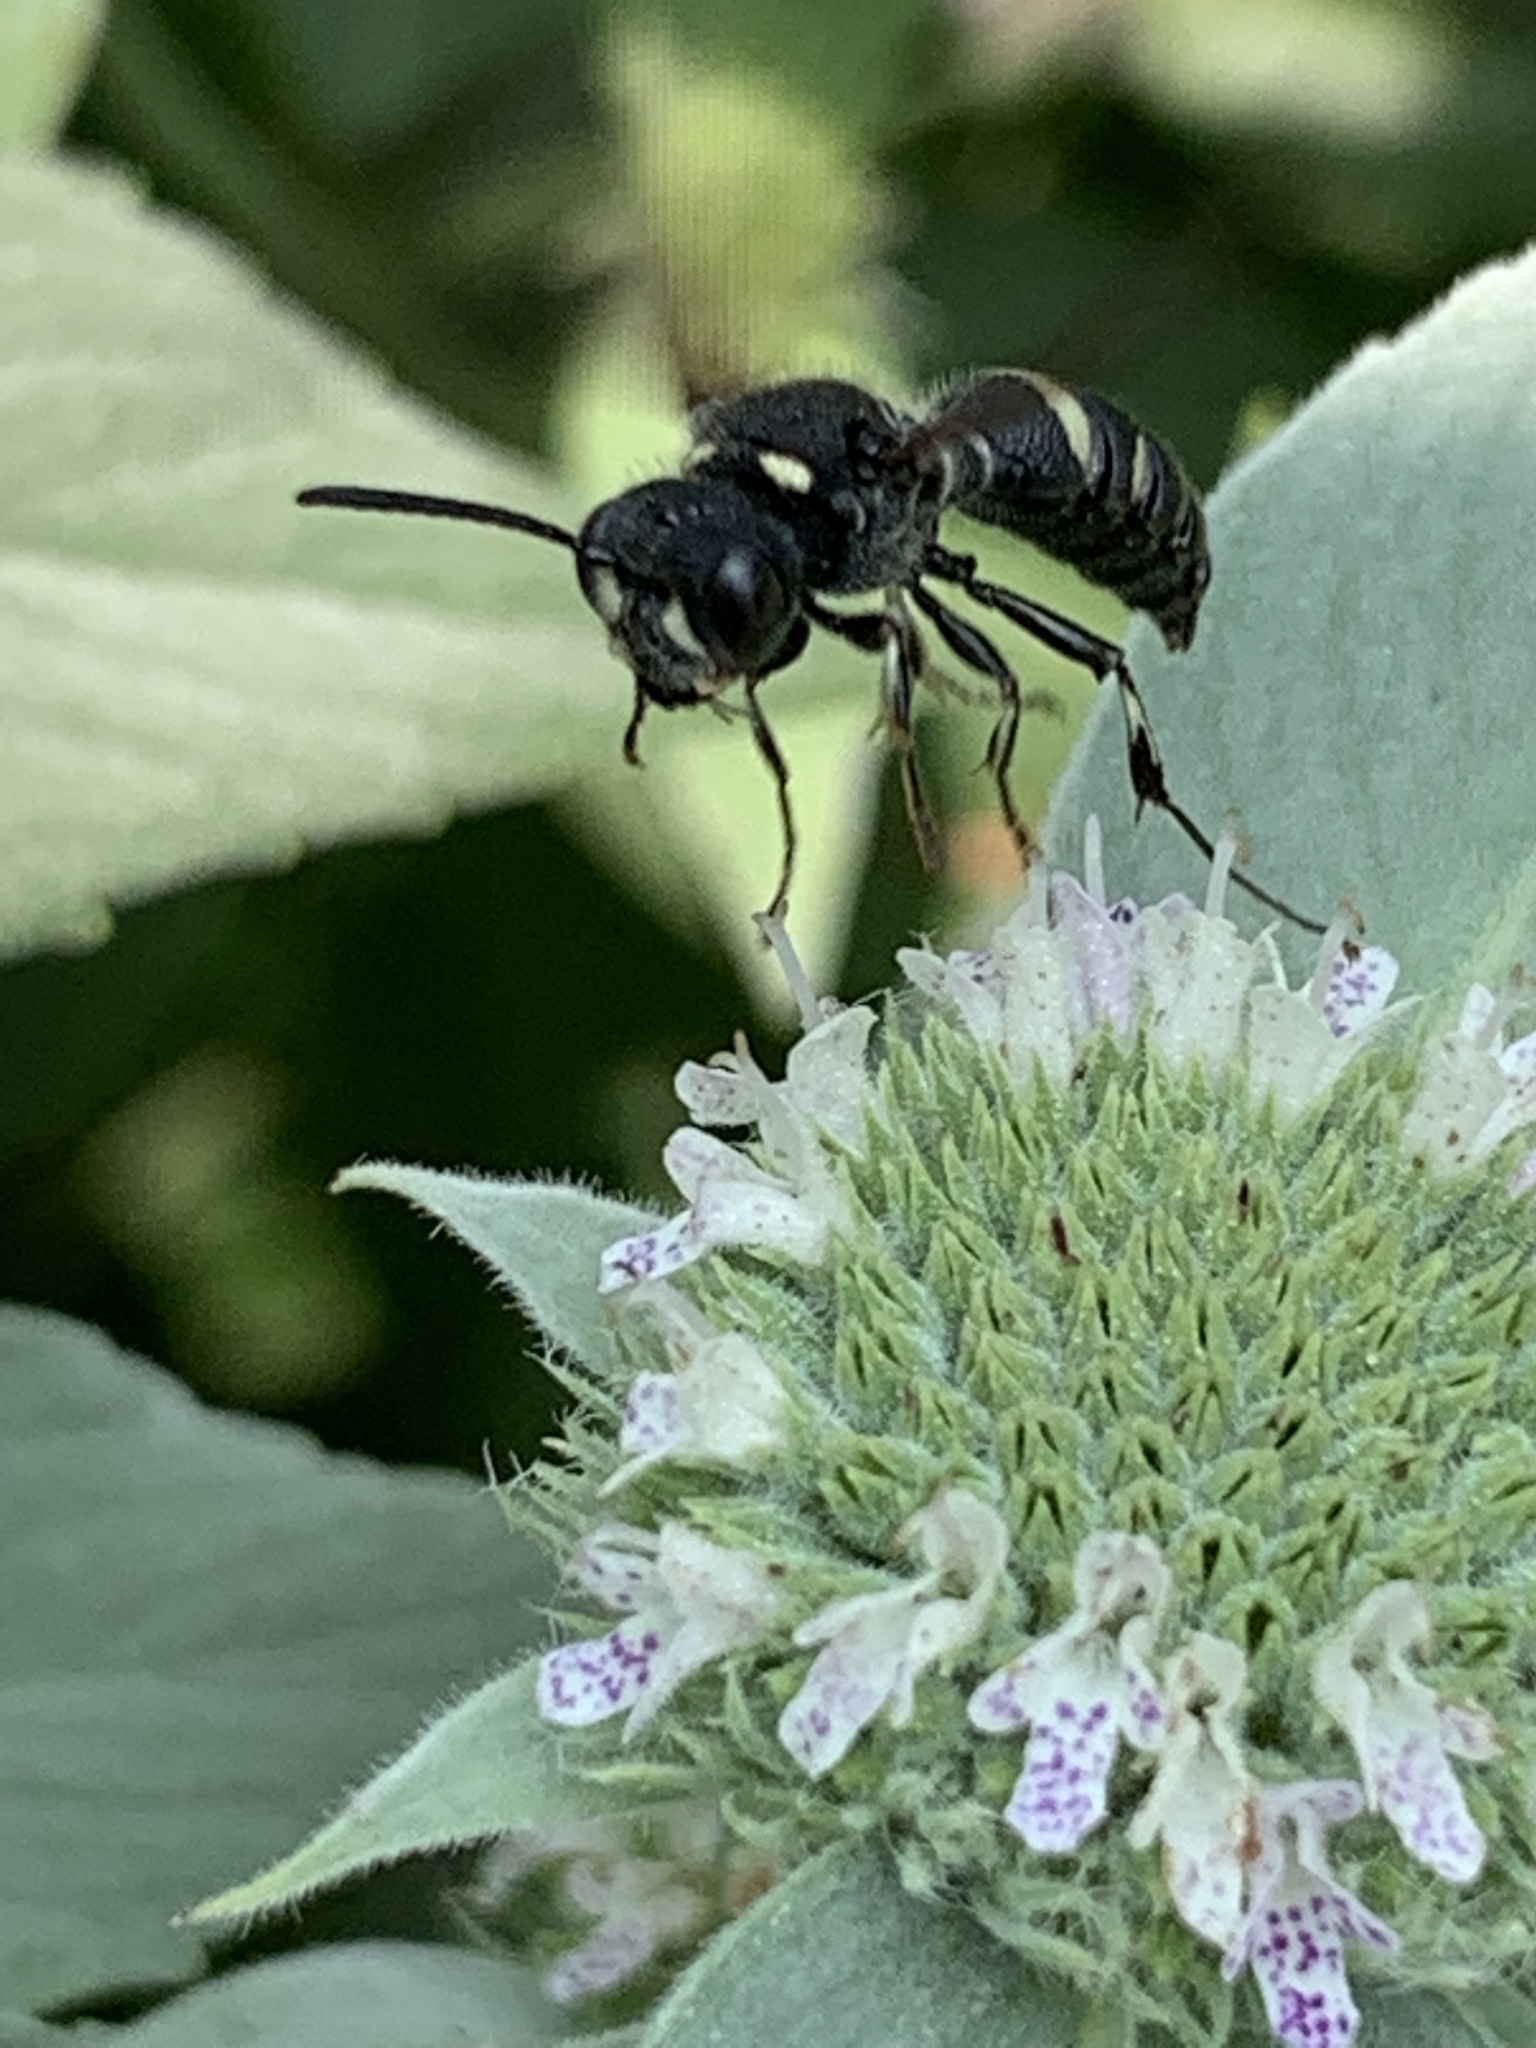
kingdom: Animalia
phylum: Arthropoda
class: Insecta
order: Hymenoptera
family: Crabronidae
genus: Cerceris
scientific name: Cerceris fumipennis
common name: Smokey-winged beetle bandit wasp
